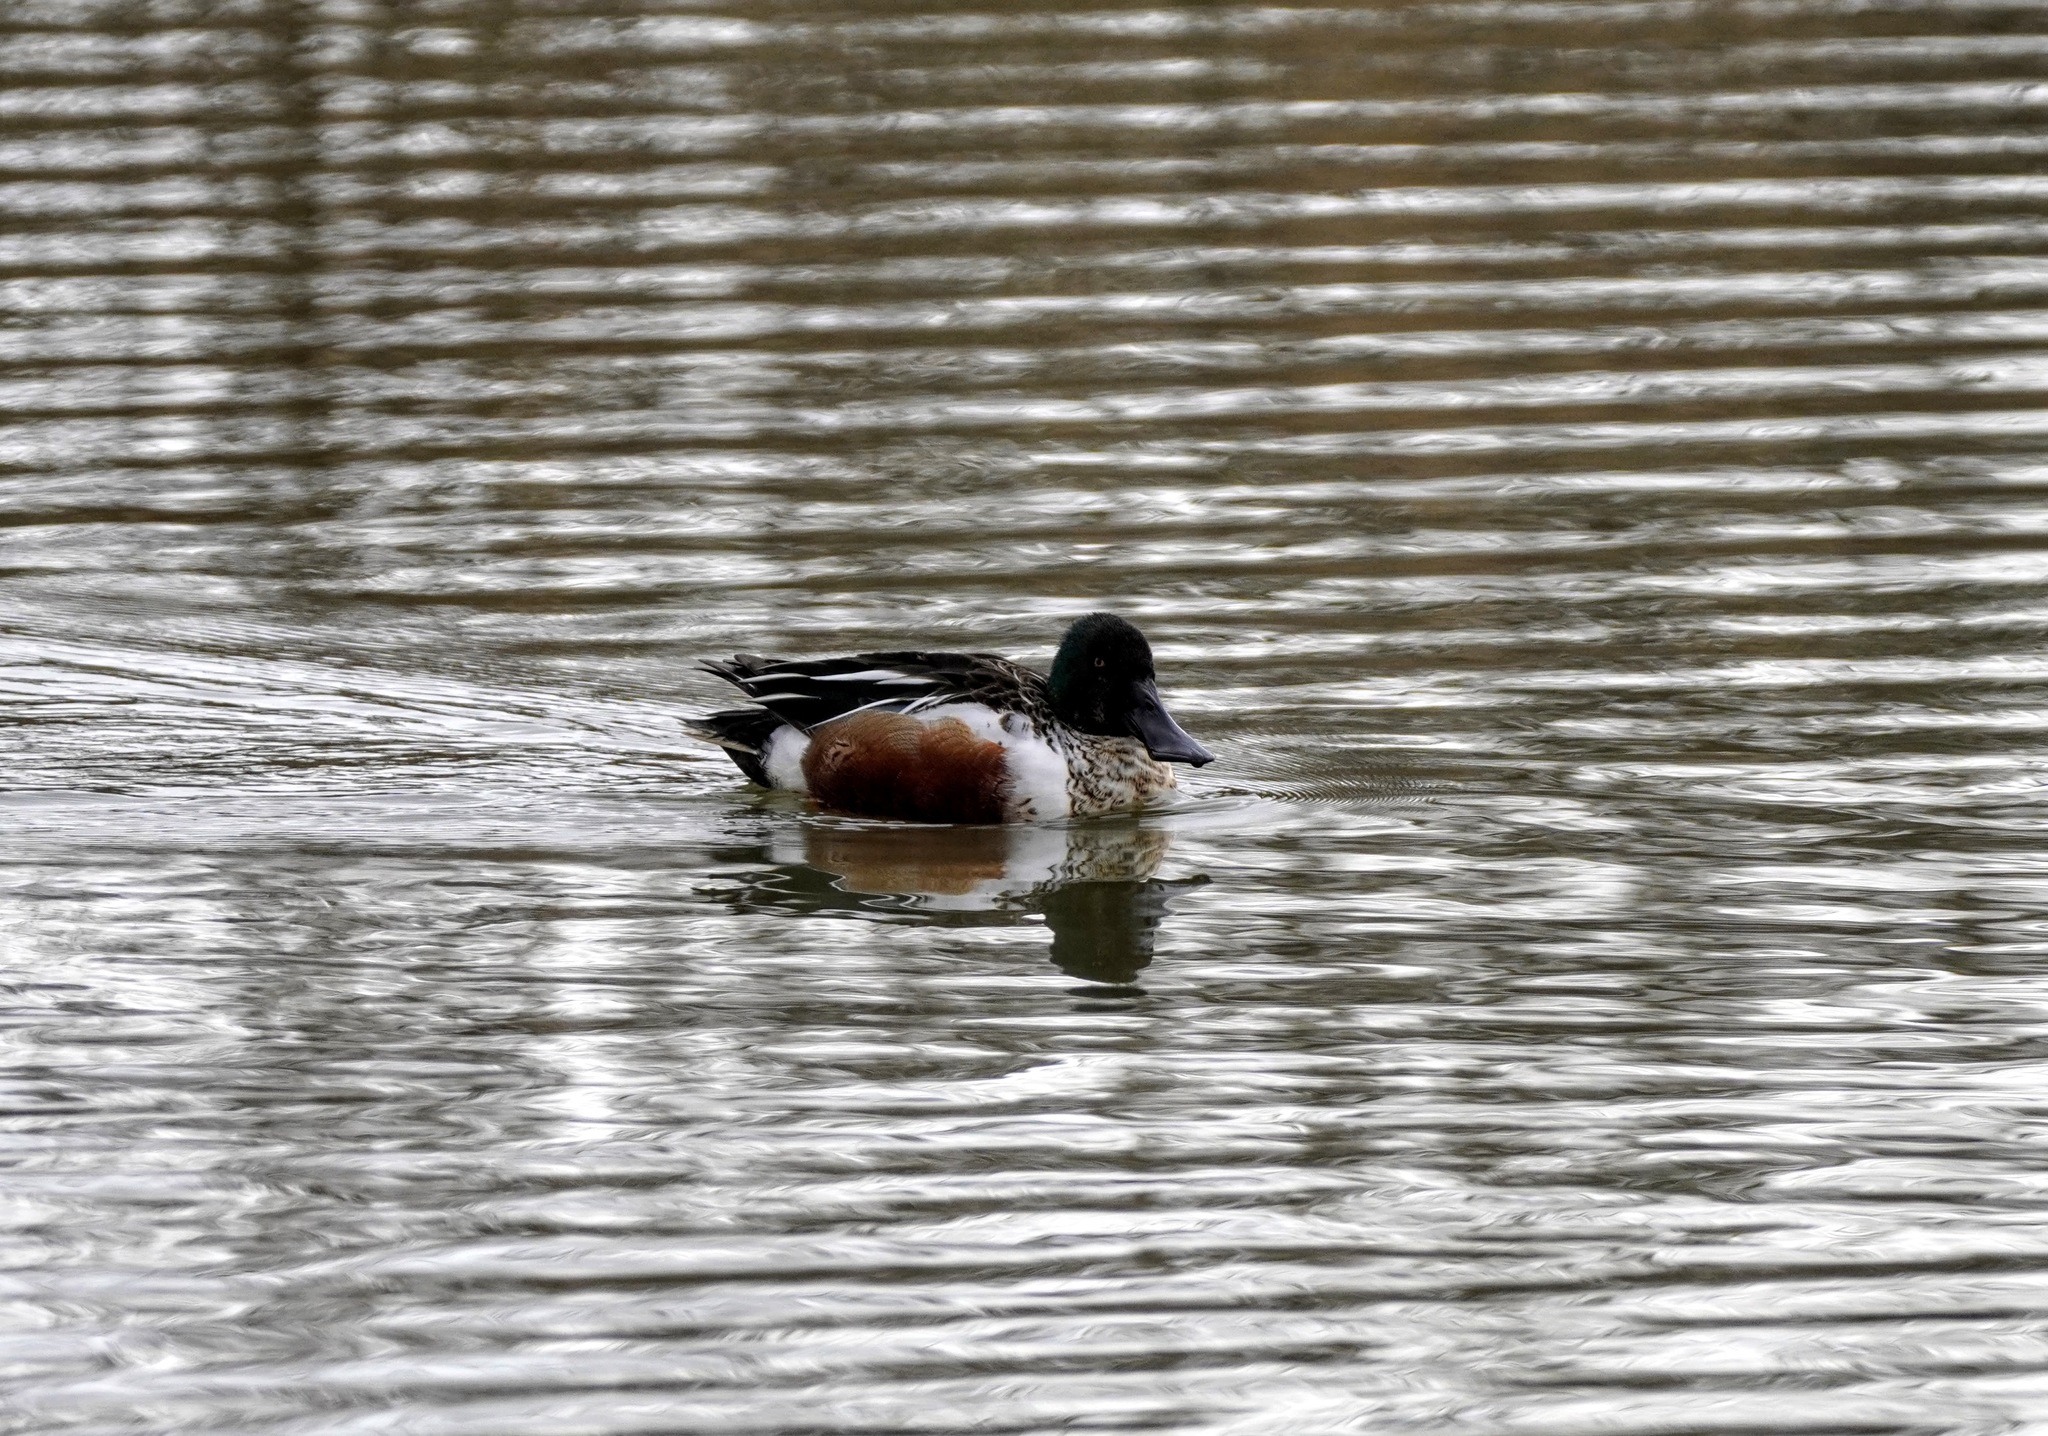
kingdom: Animalia
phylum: Chordata
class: Aves
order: Anseriformes
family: Anatidae
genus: Spatula
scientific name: Spatula clypeata
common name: Northern shoveler
